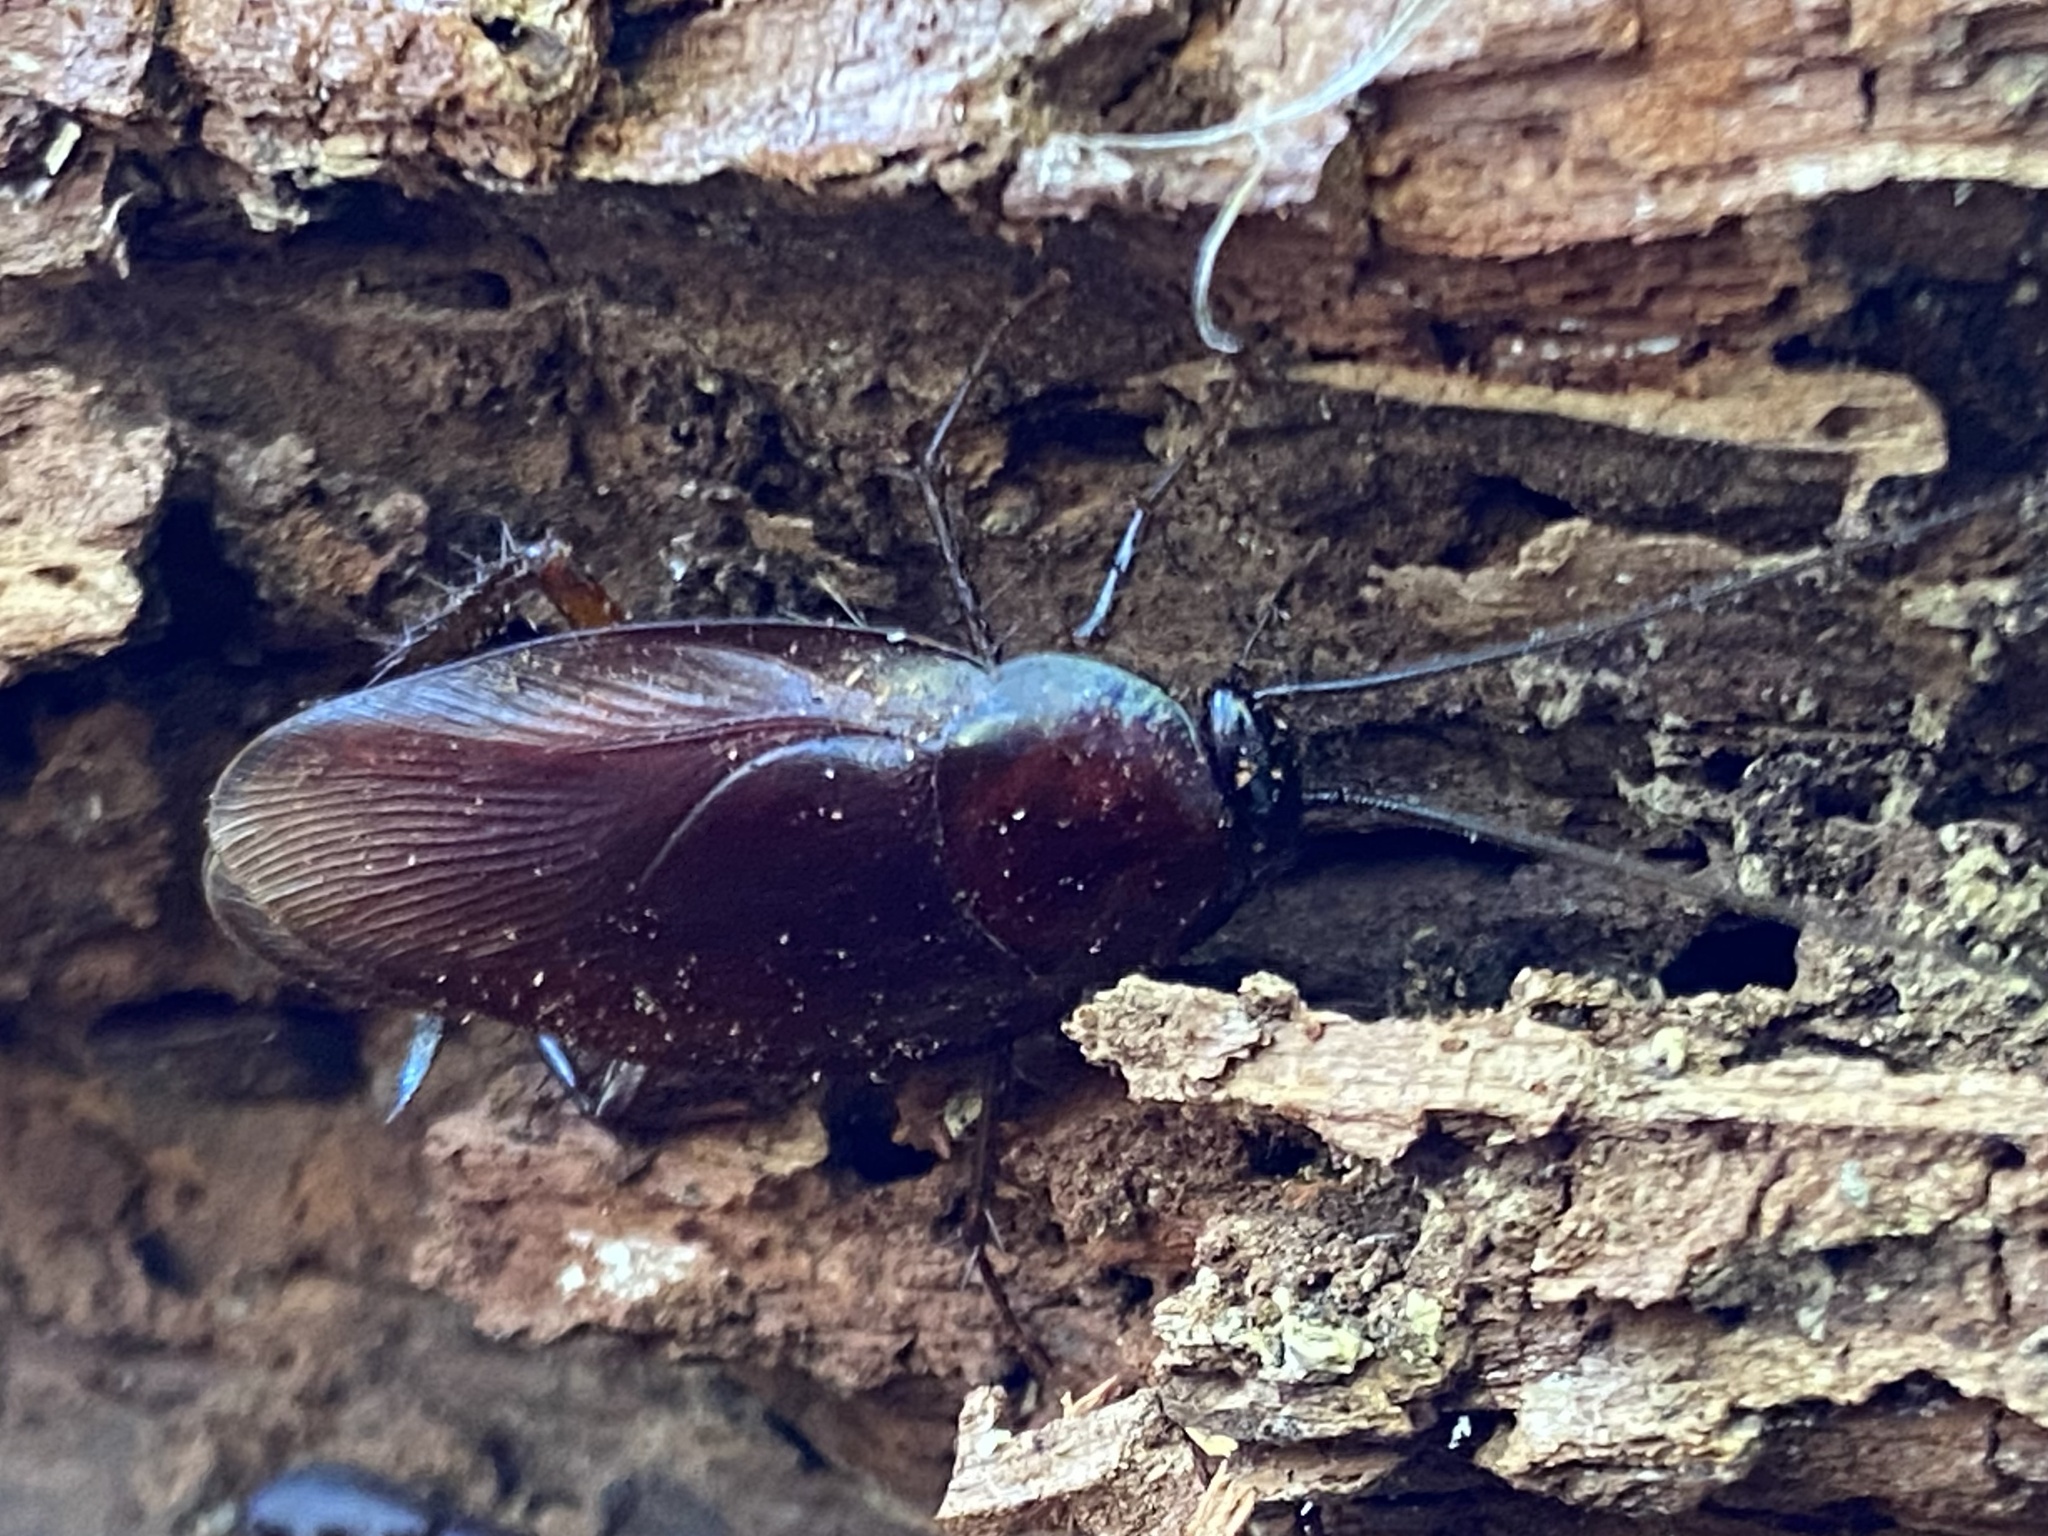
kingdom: Animalia
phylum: Arthropoda
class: Insecta
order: Blattodea
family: Blattidae
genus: Periplaneta
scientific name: Periplaneta fuliginosa
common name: Smokeybrown cockroad
